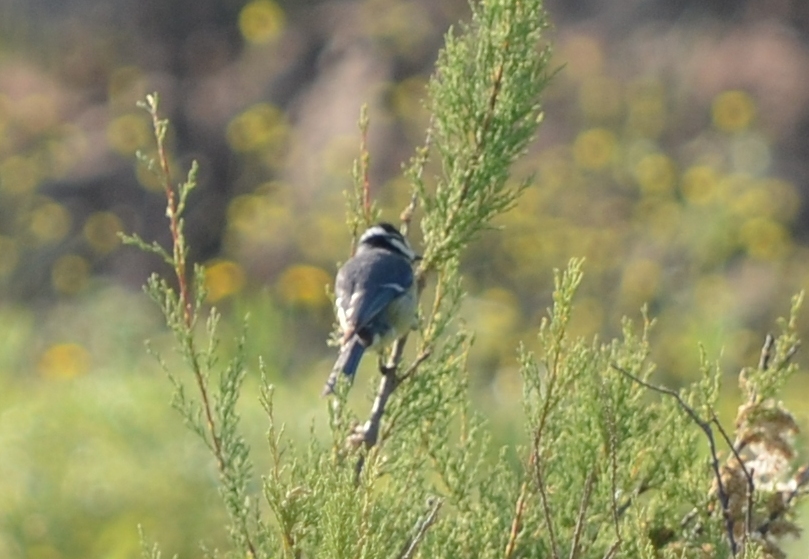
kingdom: Animalia
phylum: Chordata
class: Aves
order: Passeriformes
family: Paridae
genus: Cyanistes
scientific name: Cyanistes teneriffae
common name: African blue tit
